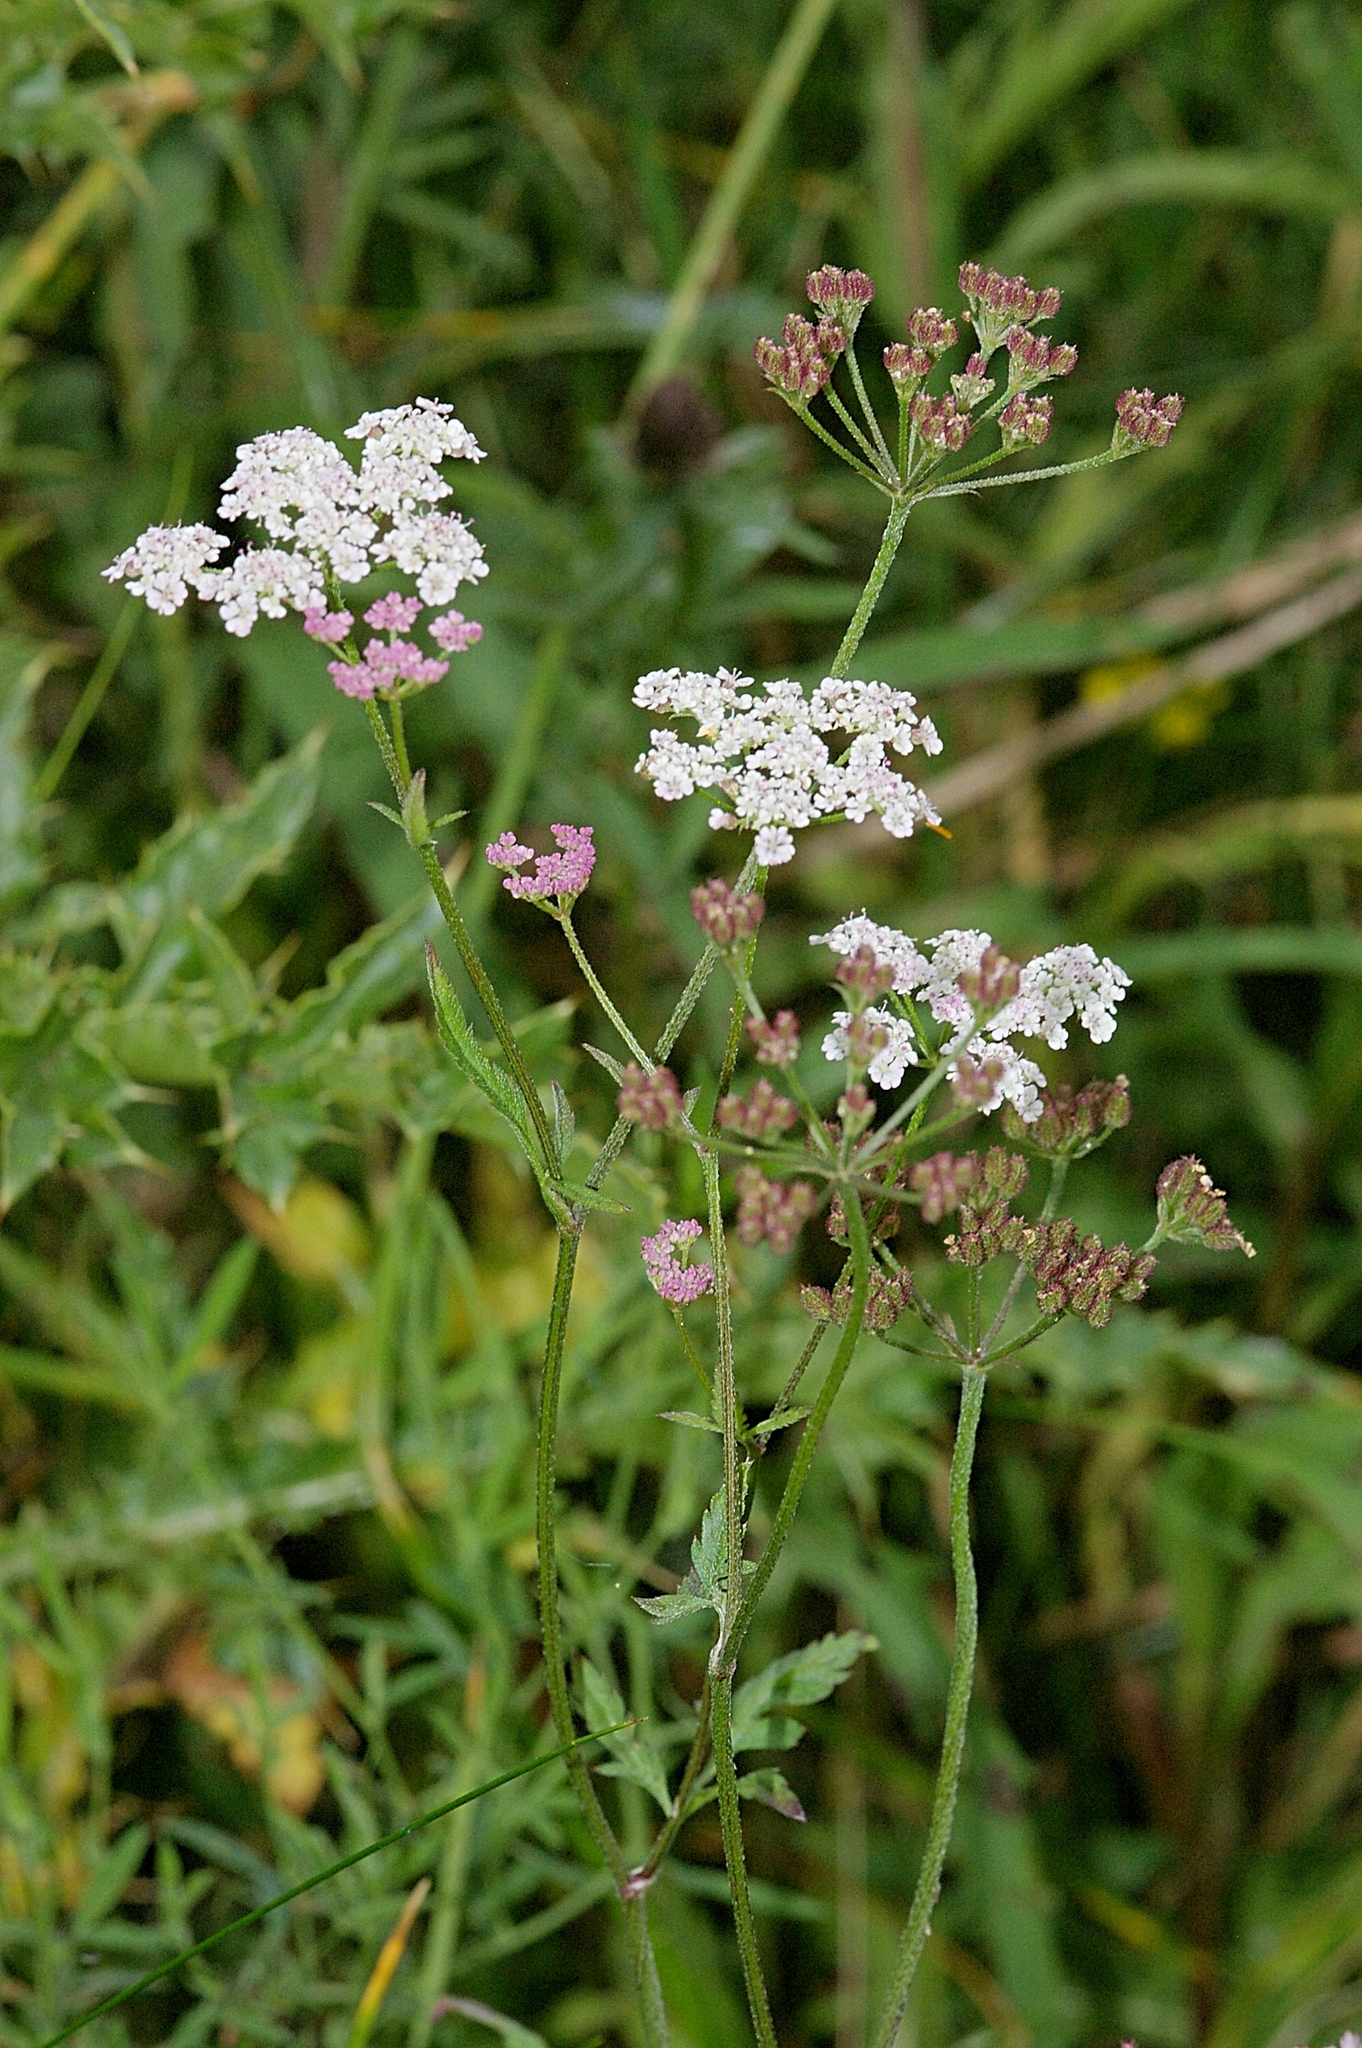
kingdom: Plantae
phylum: Tracheophyta
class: Magnoliopsida
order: Apiales
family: Apiaceae
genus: Torilis
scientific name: Torilis japonica
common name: Upright hedge-parsley
